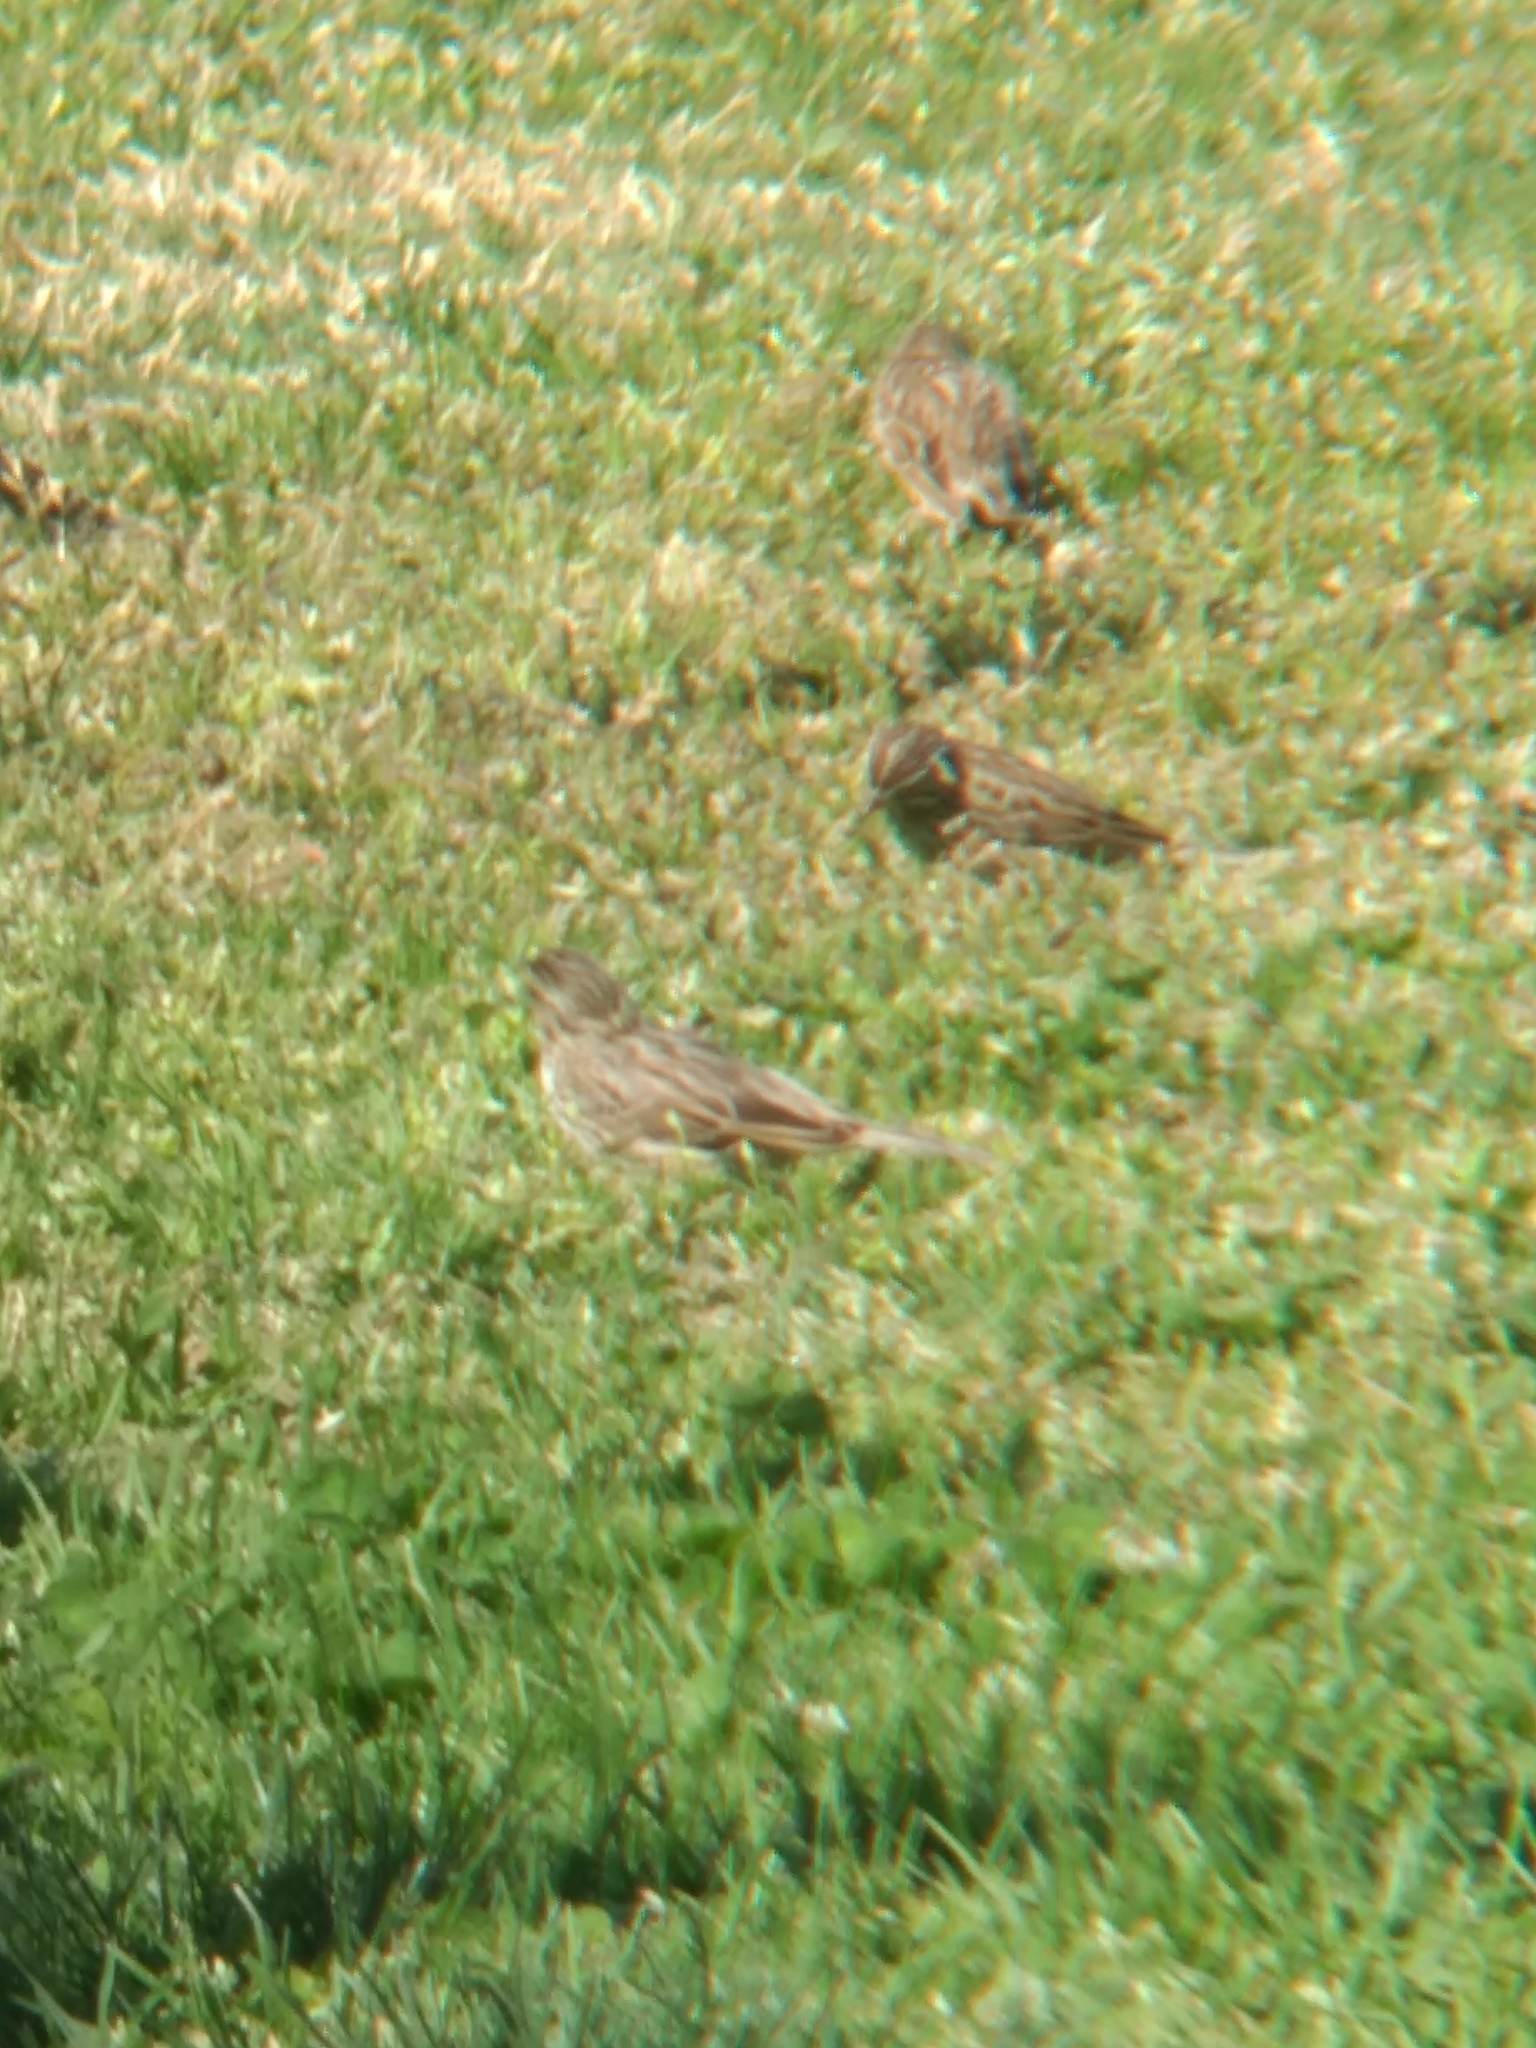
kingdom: Animalia
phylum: Chordata
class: Aves
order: Passeriformes
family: Passerellidae
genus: Passerculus
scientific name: Passerculus sandwichensis
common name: Savannah sparrow
